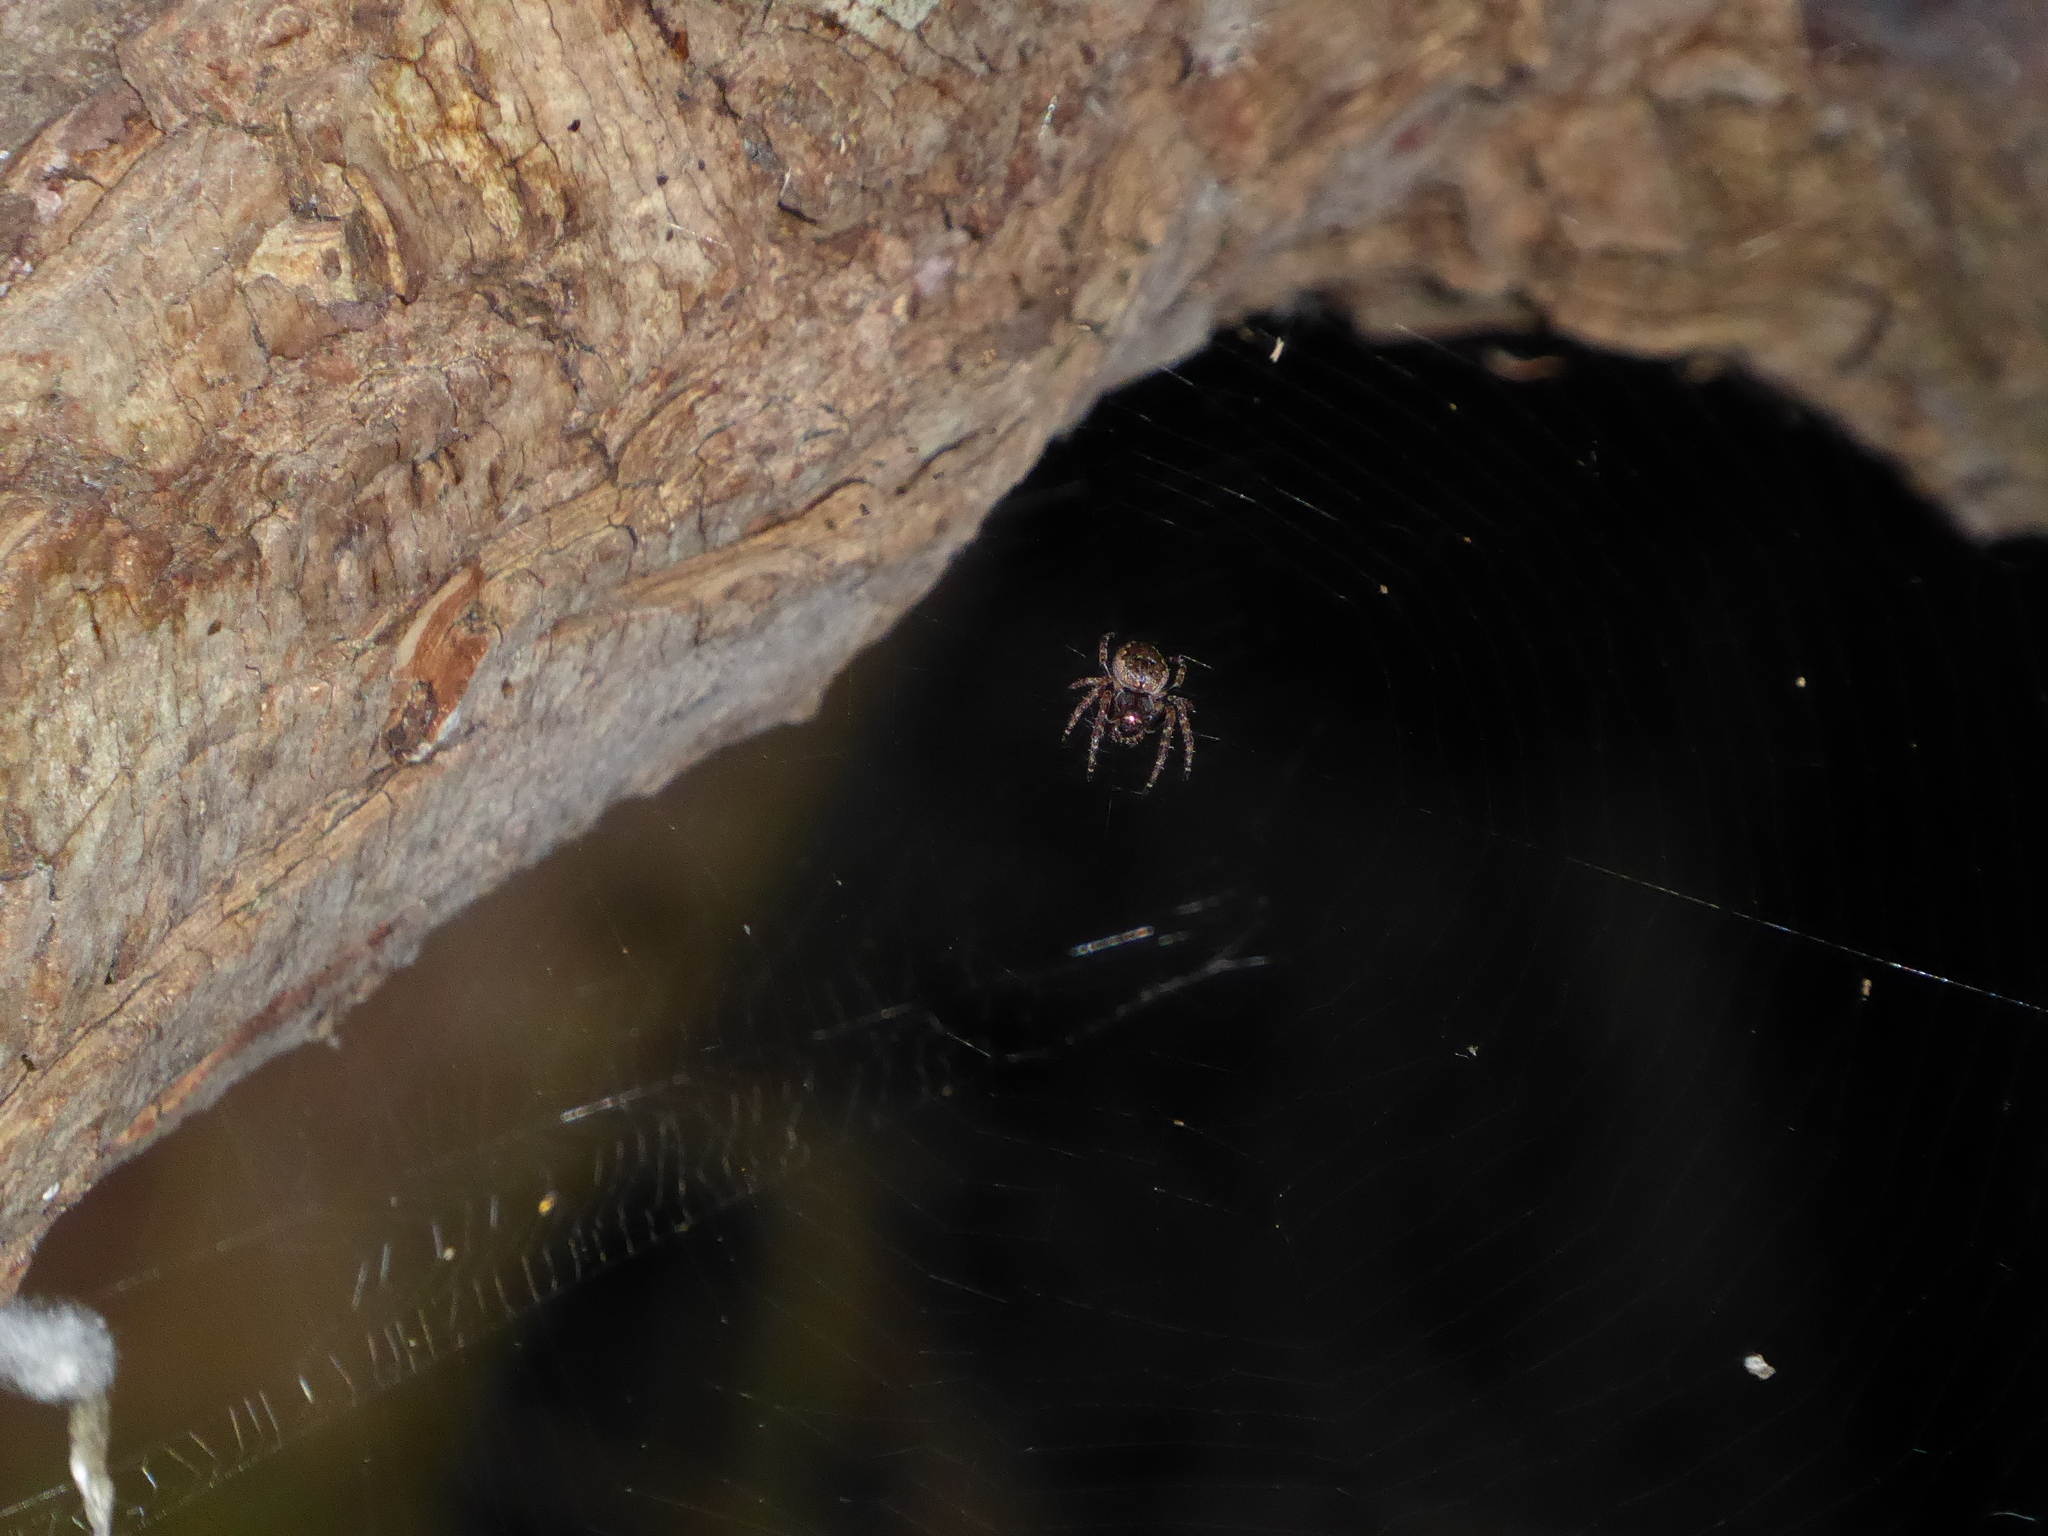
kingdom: Animalia
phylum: Arthropoda
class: Arachnida
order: Araneae
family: Araneidae
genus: Nuctenea
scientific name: Nuctenea umbratica
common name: Toad spider
